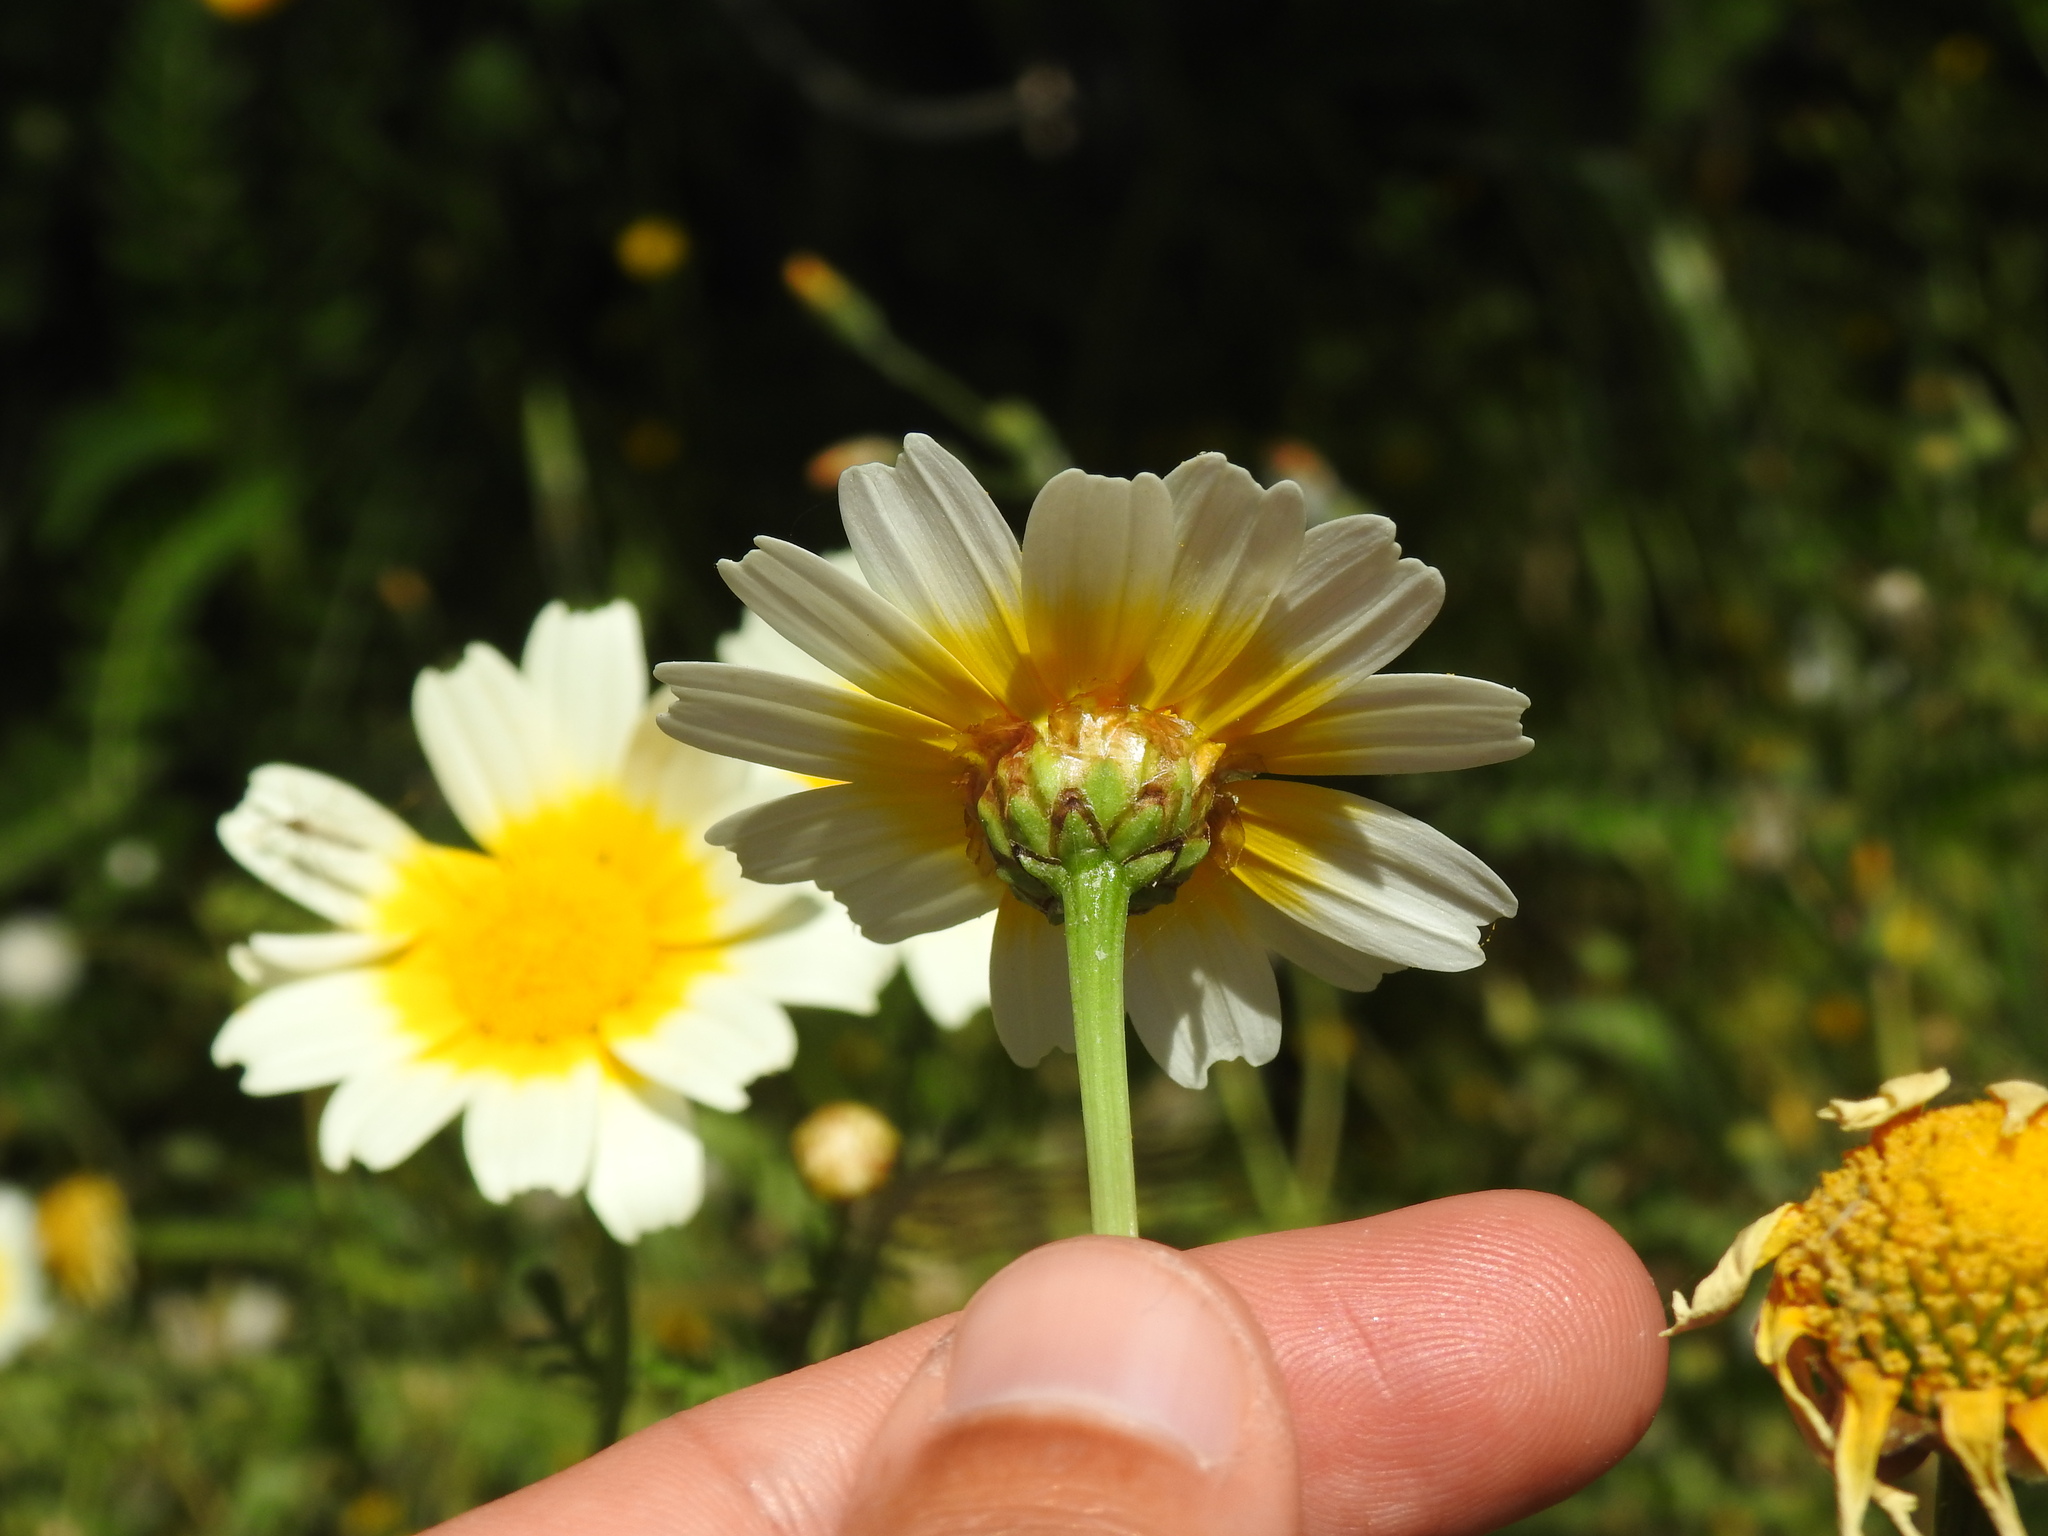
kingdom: Plantae
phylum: Tracheophyta
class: Magnoliopsida
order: Asterales
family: Asteraceae
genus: Glebionis
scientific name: Glebionis coronaria
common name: Crowndaisy
